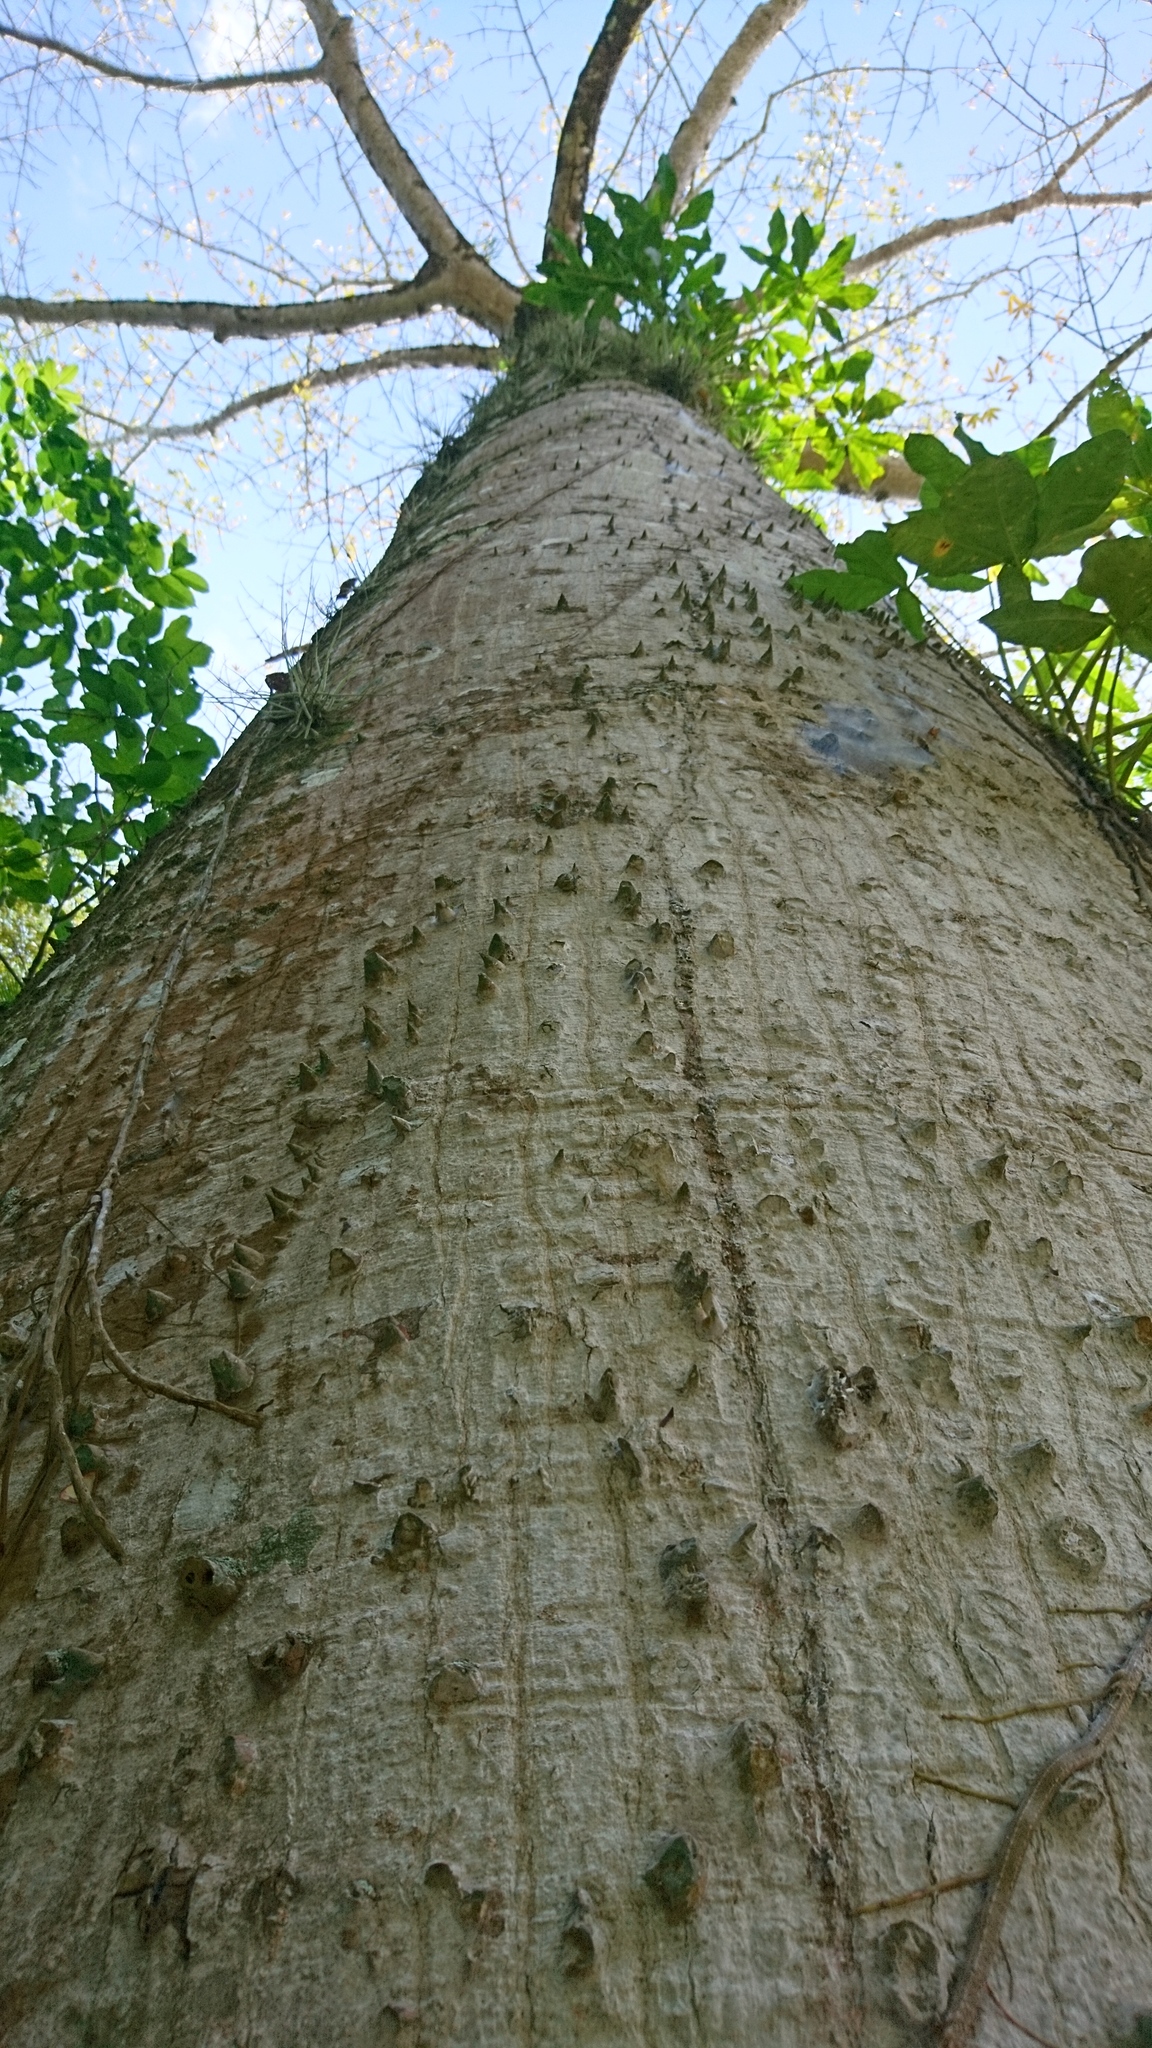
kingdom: Plantae
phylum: Tracheophyta
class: Magnoliopsida
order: Malvales
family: Malvaceae
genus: Ceiba
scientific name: Ceiba pentandra
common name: Kapok
